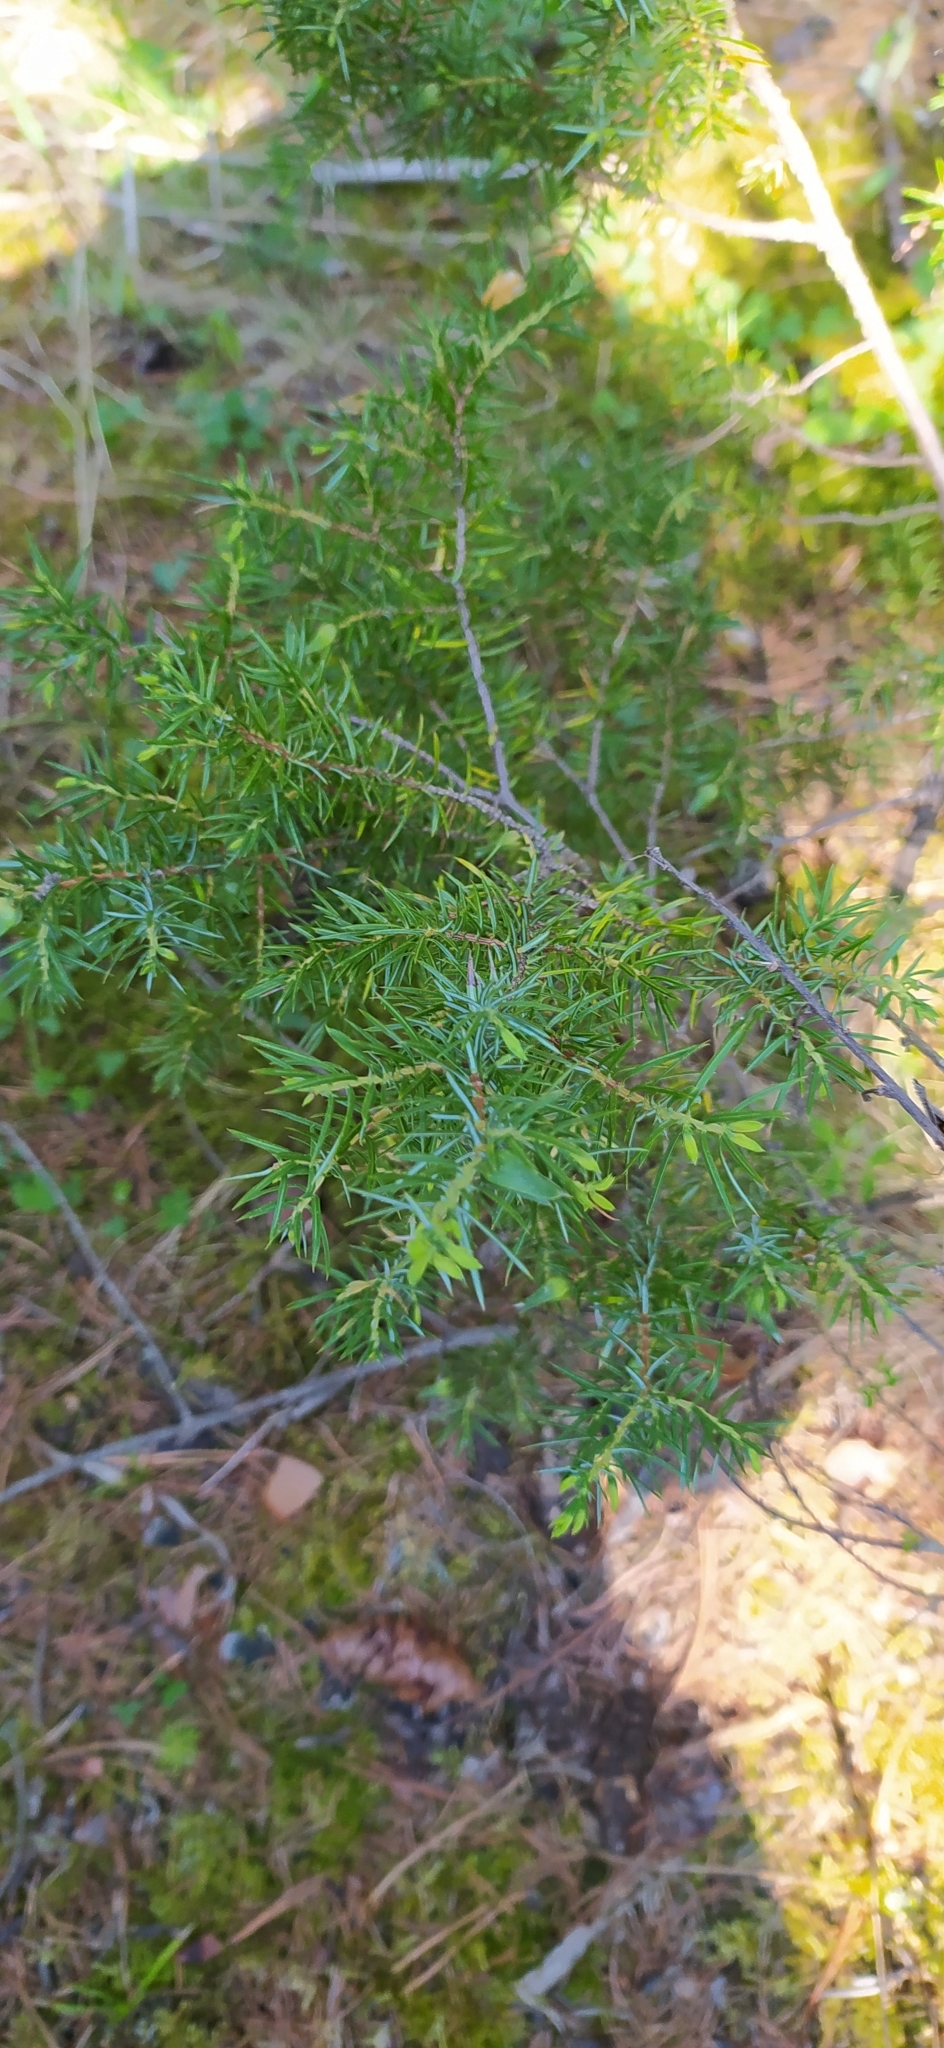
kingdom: Plantae
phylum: Tracheophyta
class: Pinopsida
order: Pinales
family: Cupressaceae
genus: Juniperus
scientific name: Juniperus communis
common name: Common juniper
